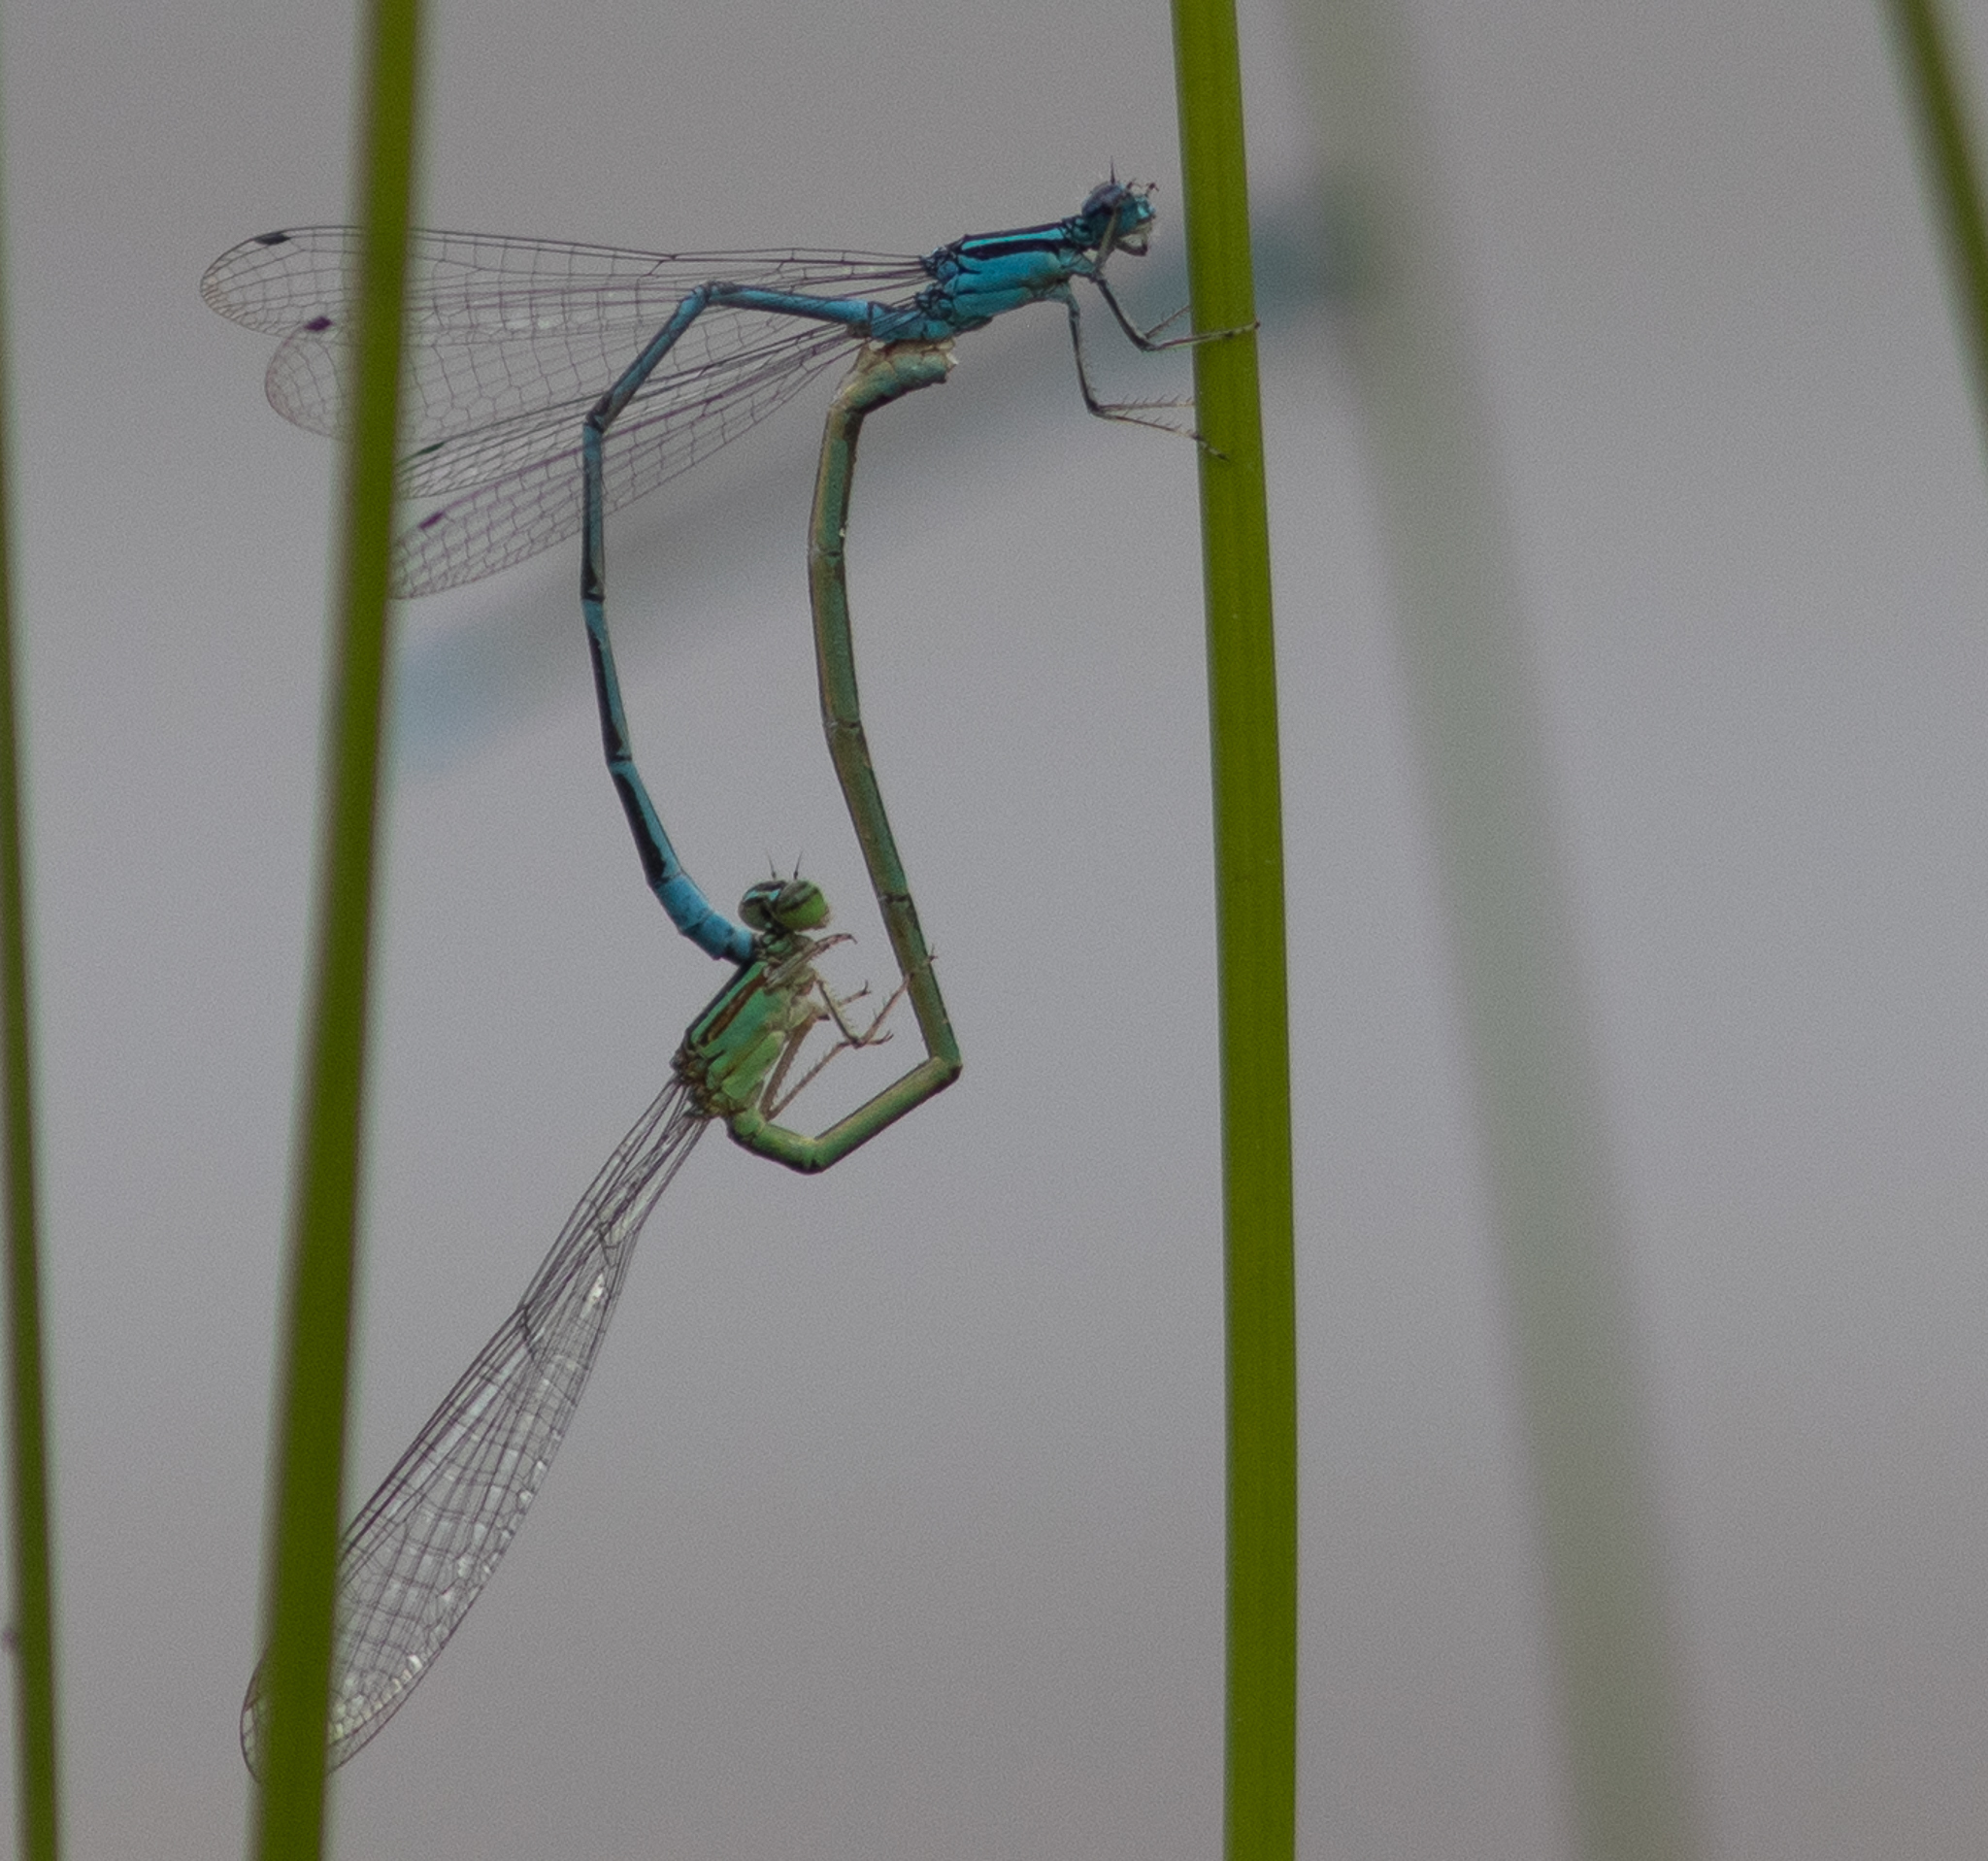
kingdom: Animalia
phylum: Arthropoda
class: Insecta
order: Odonata
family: Coenagrionidae
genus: Enallagma
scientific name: Enallagma exsulans
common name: Stream bluet
